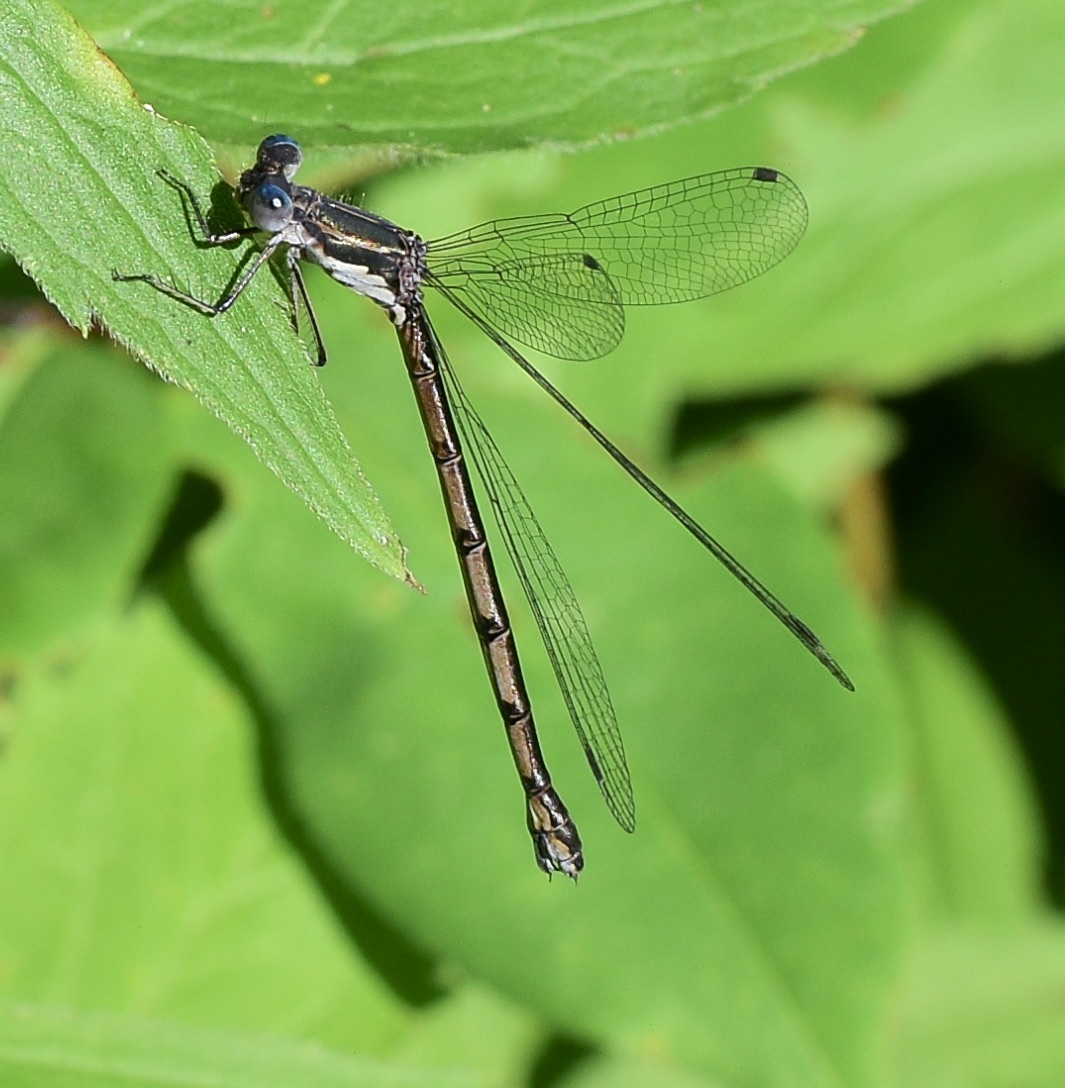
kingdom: Animalia
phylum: Arthropoda
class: Insecta
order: Odonata
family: Lestidae
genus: Lestes
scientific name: Lestes congener
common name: Spotted spreadwing
